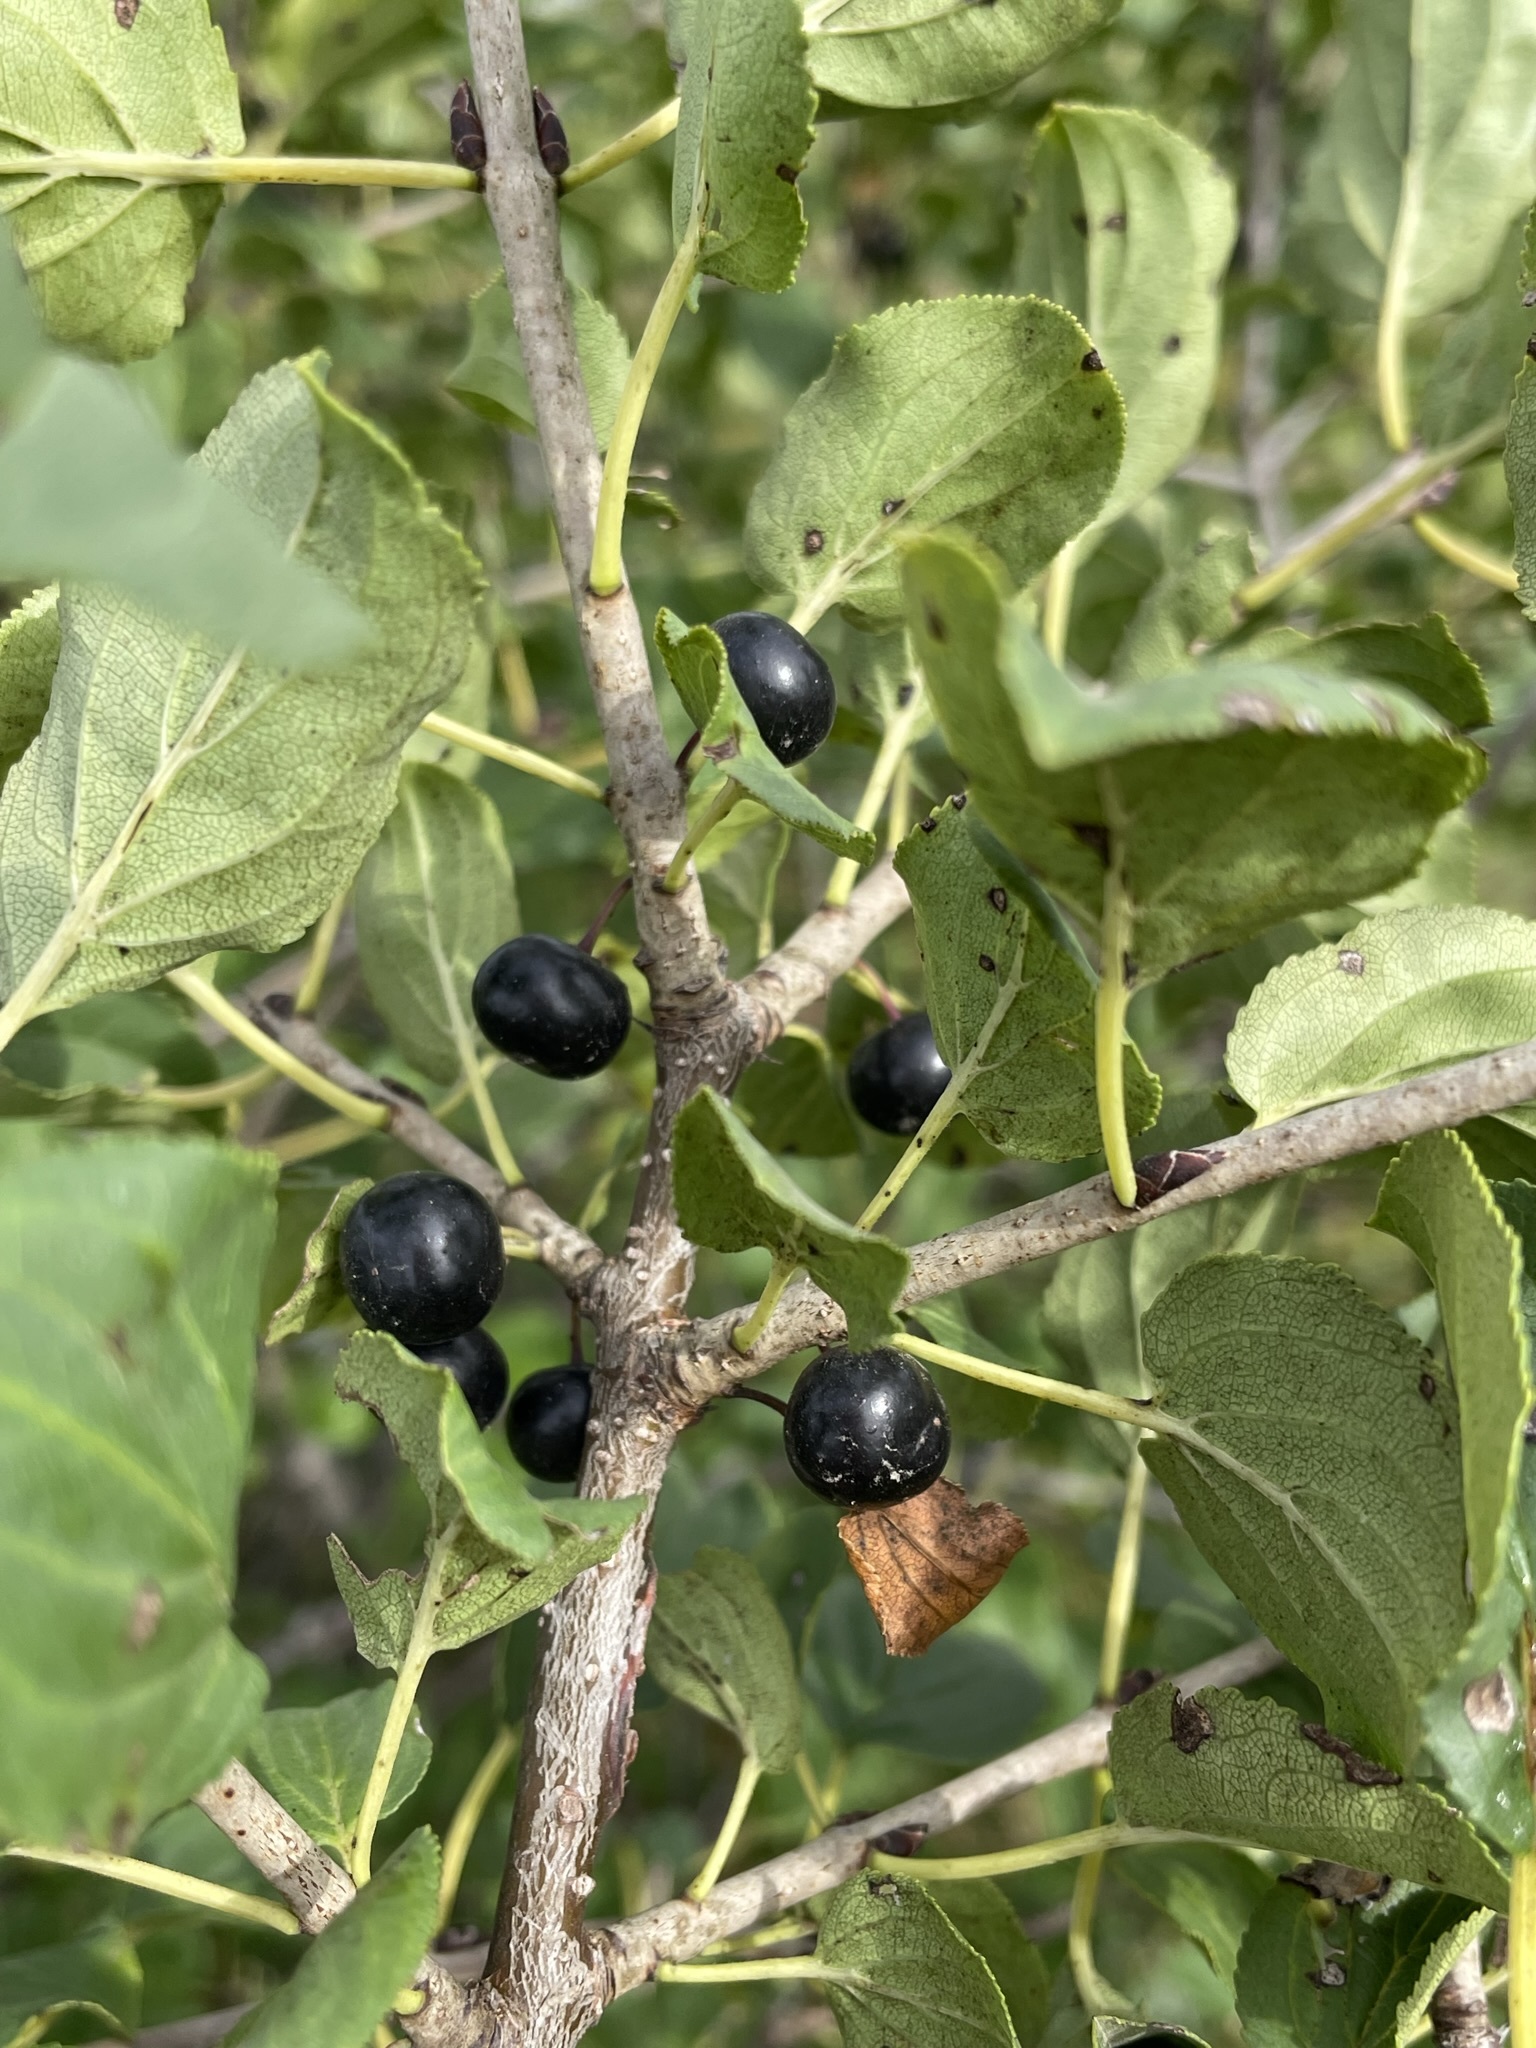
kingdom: Plantae
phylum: Tracheophyta
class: Magnoliopsida
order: Rosales
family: Rhamnaceae
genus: Rhamnus
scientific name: Rhamnus cathartica
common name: Common buckthorn
